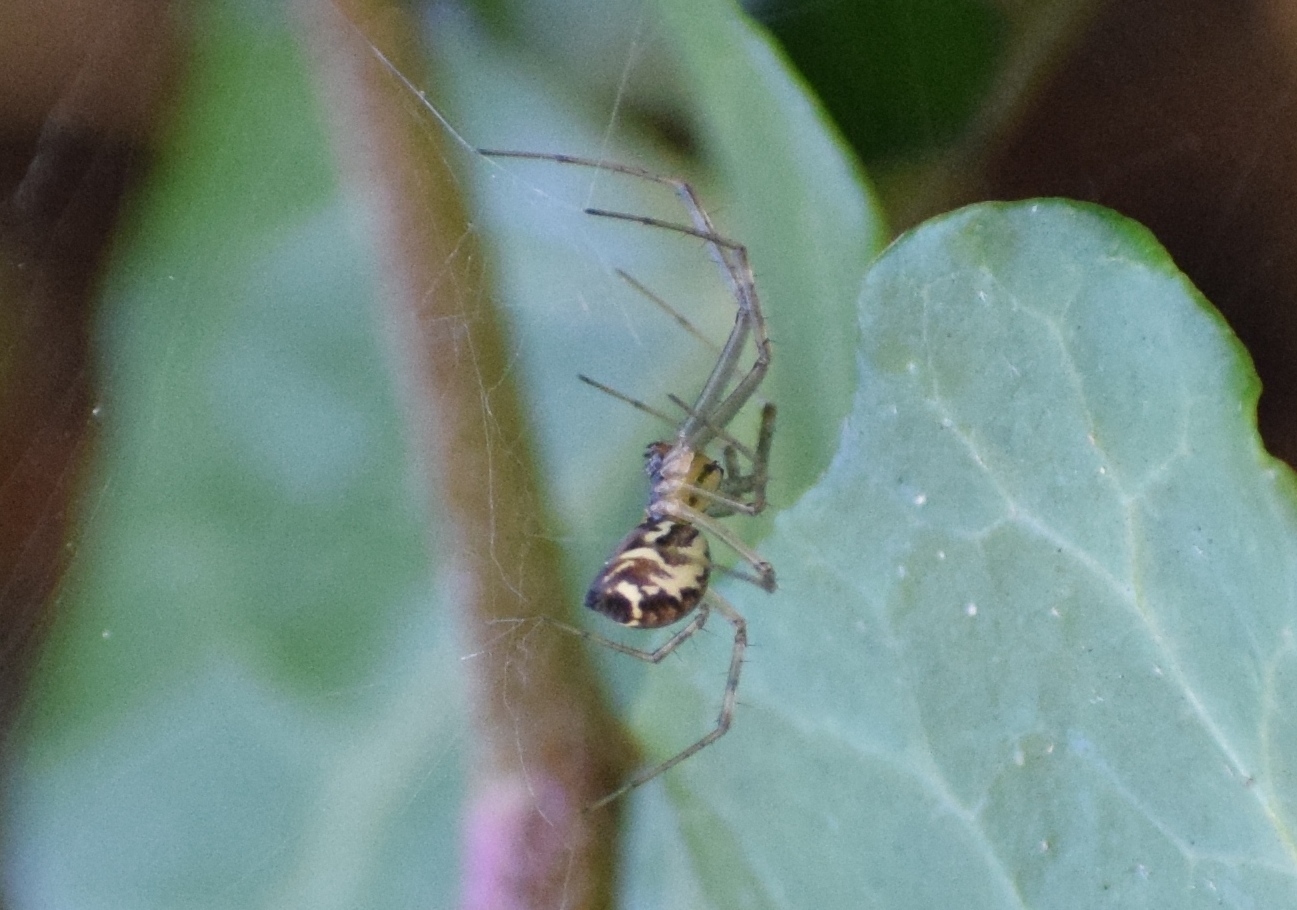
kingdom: Animalia
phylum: Arthropoda
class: Arachnida
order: Araneae
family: Linyphiidae
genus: Linyphia
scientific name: Linyphia triangularis
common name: Money spider
